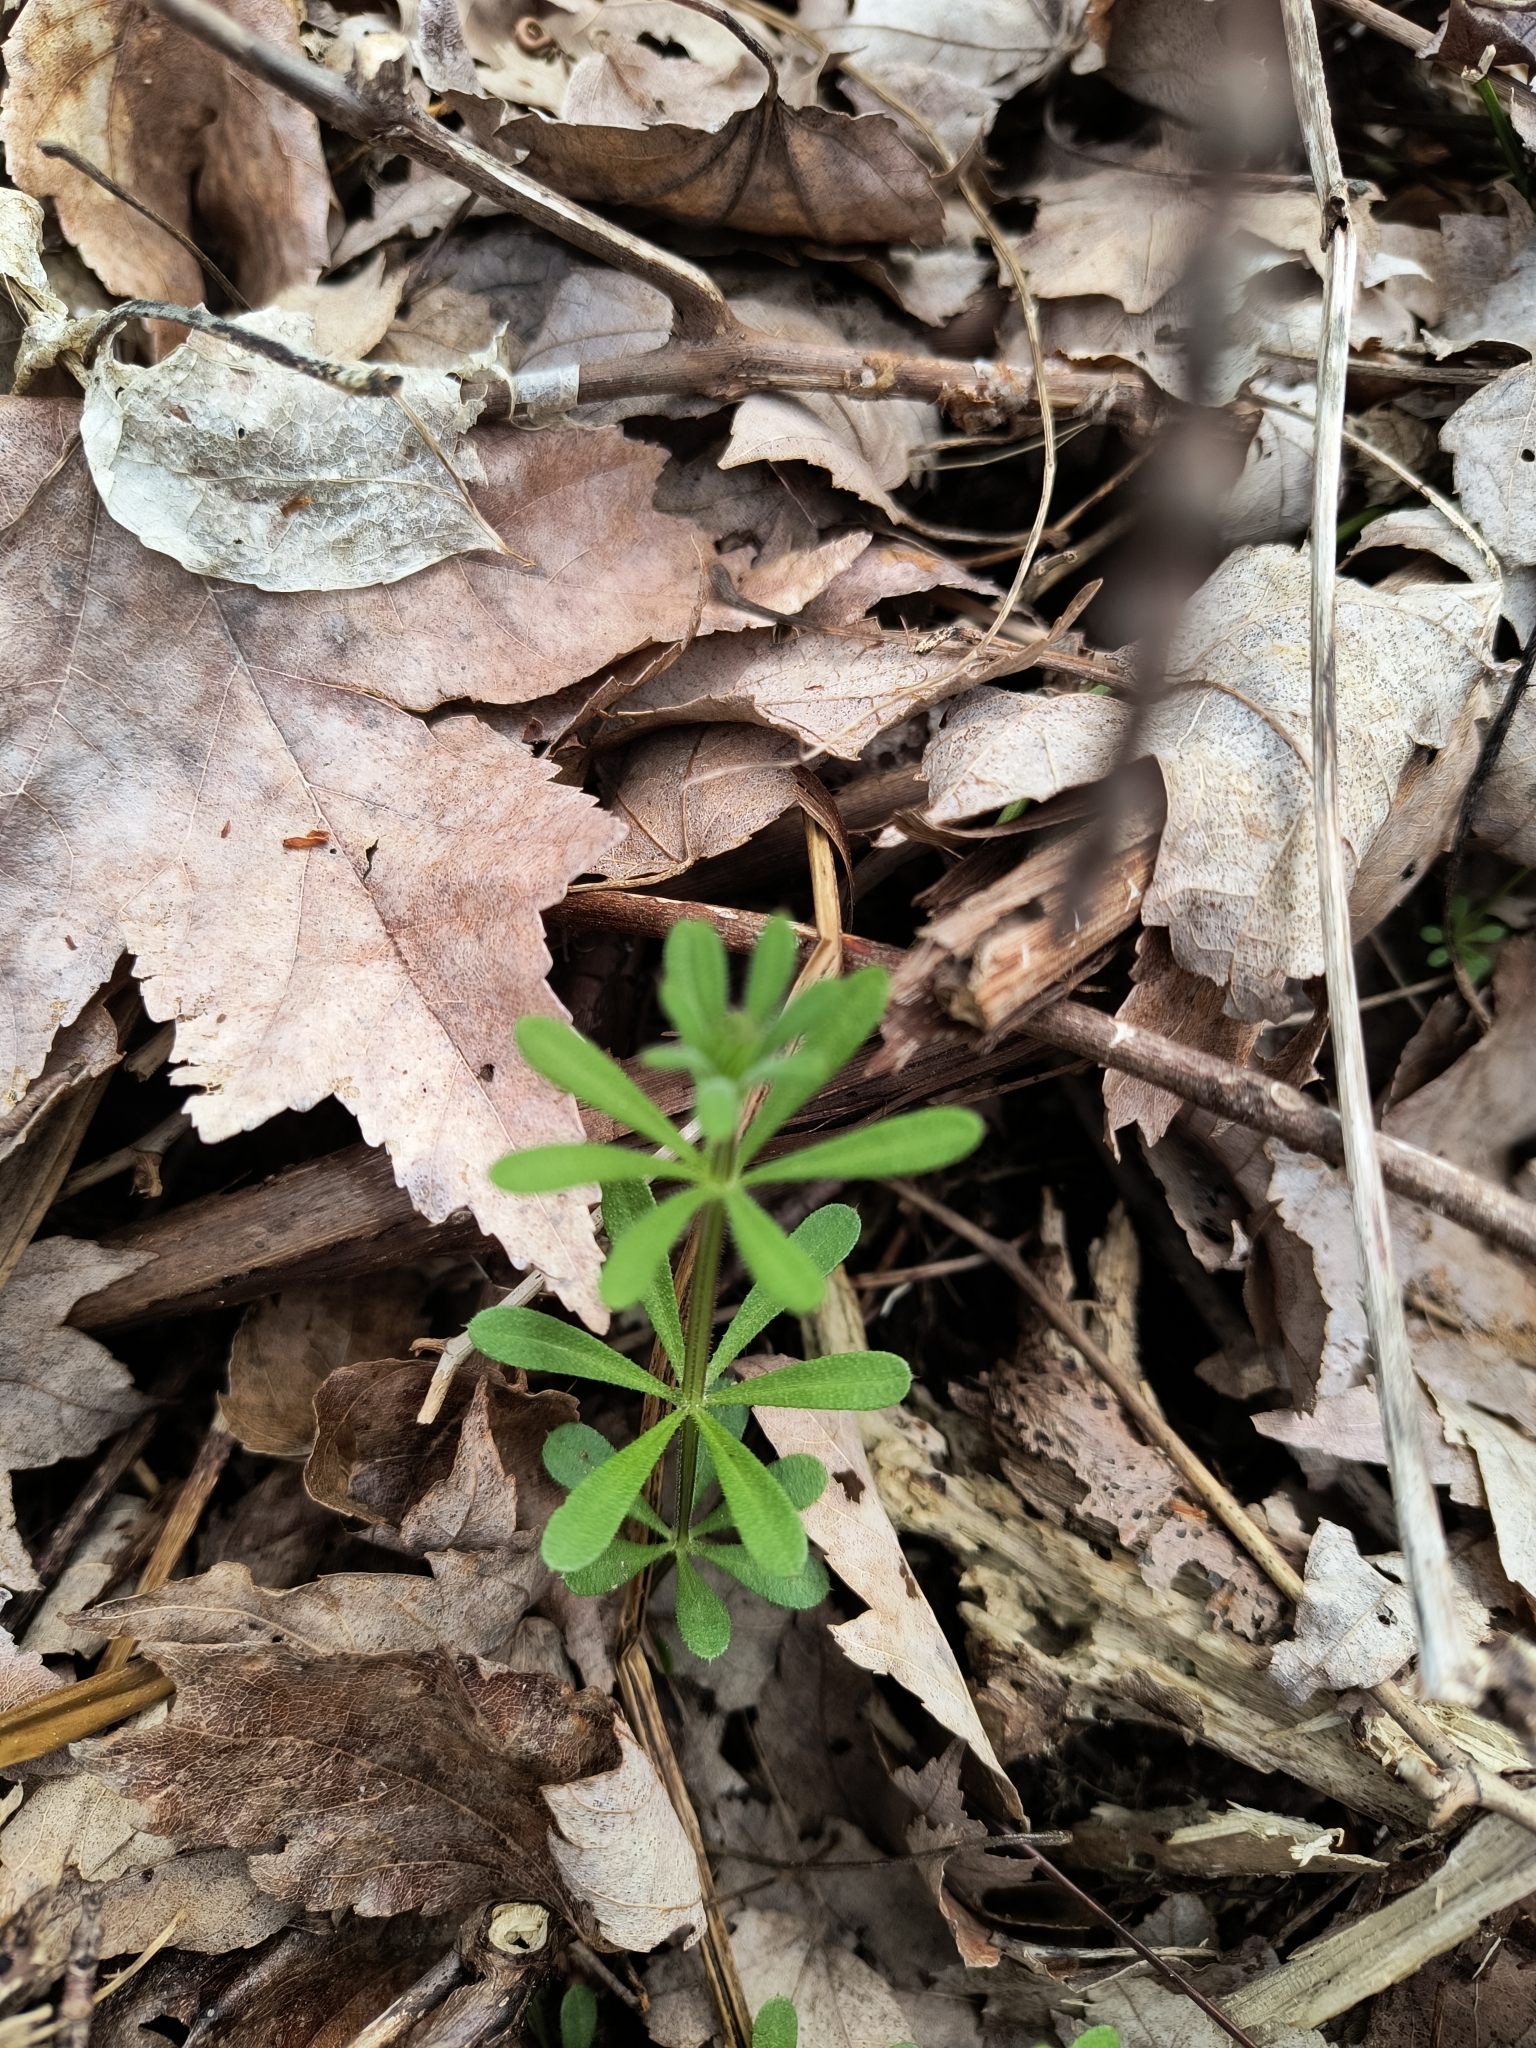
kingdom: Plantae
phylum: Tracheophyta
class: Magnoliopsida
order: Gentianales
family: Rubiaceae
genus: Galium
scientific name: Galium aparine
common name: Cleavers
